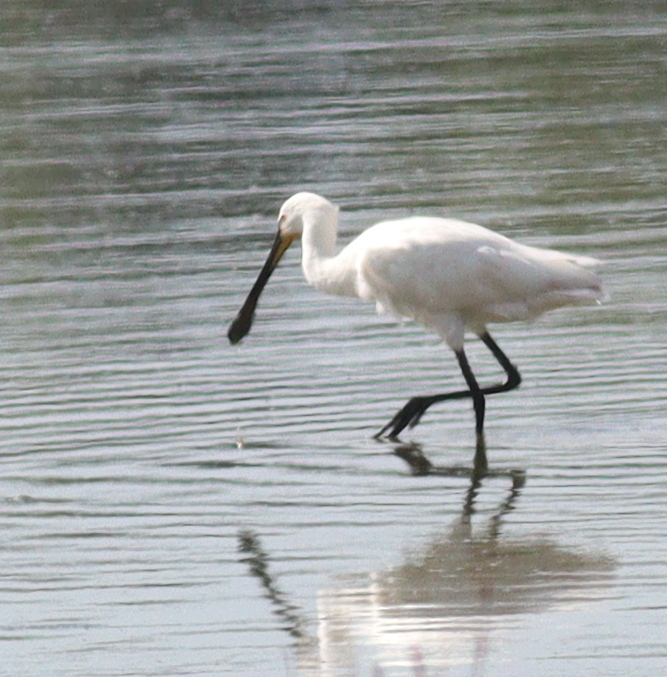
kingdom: Animalia
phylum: Chordata
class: Aves
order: Pelecaniformes
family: Threskiornithidae
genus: Platalea
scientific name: Platalea leucorodia
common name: Eurasian spoonbill
